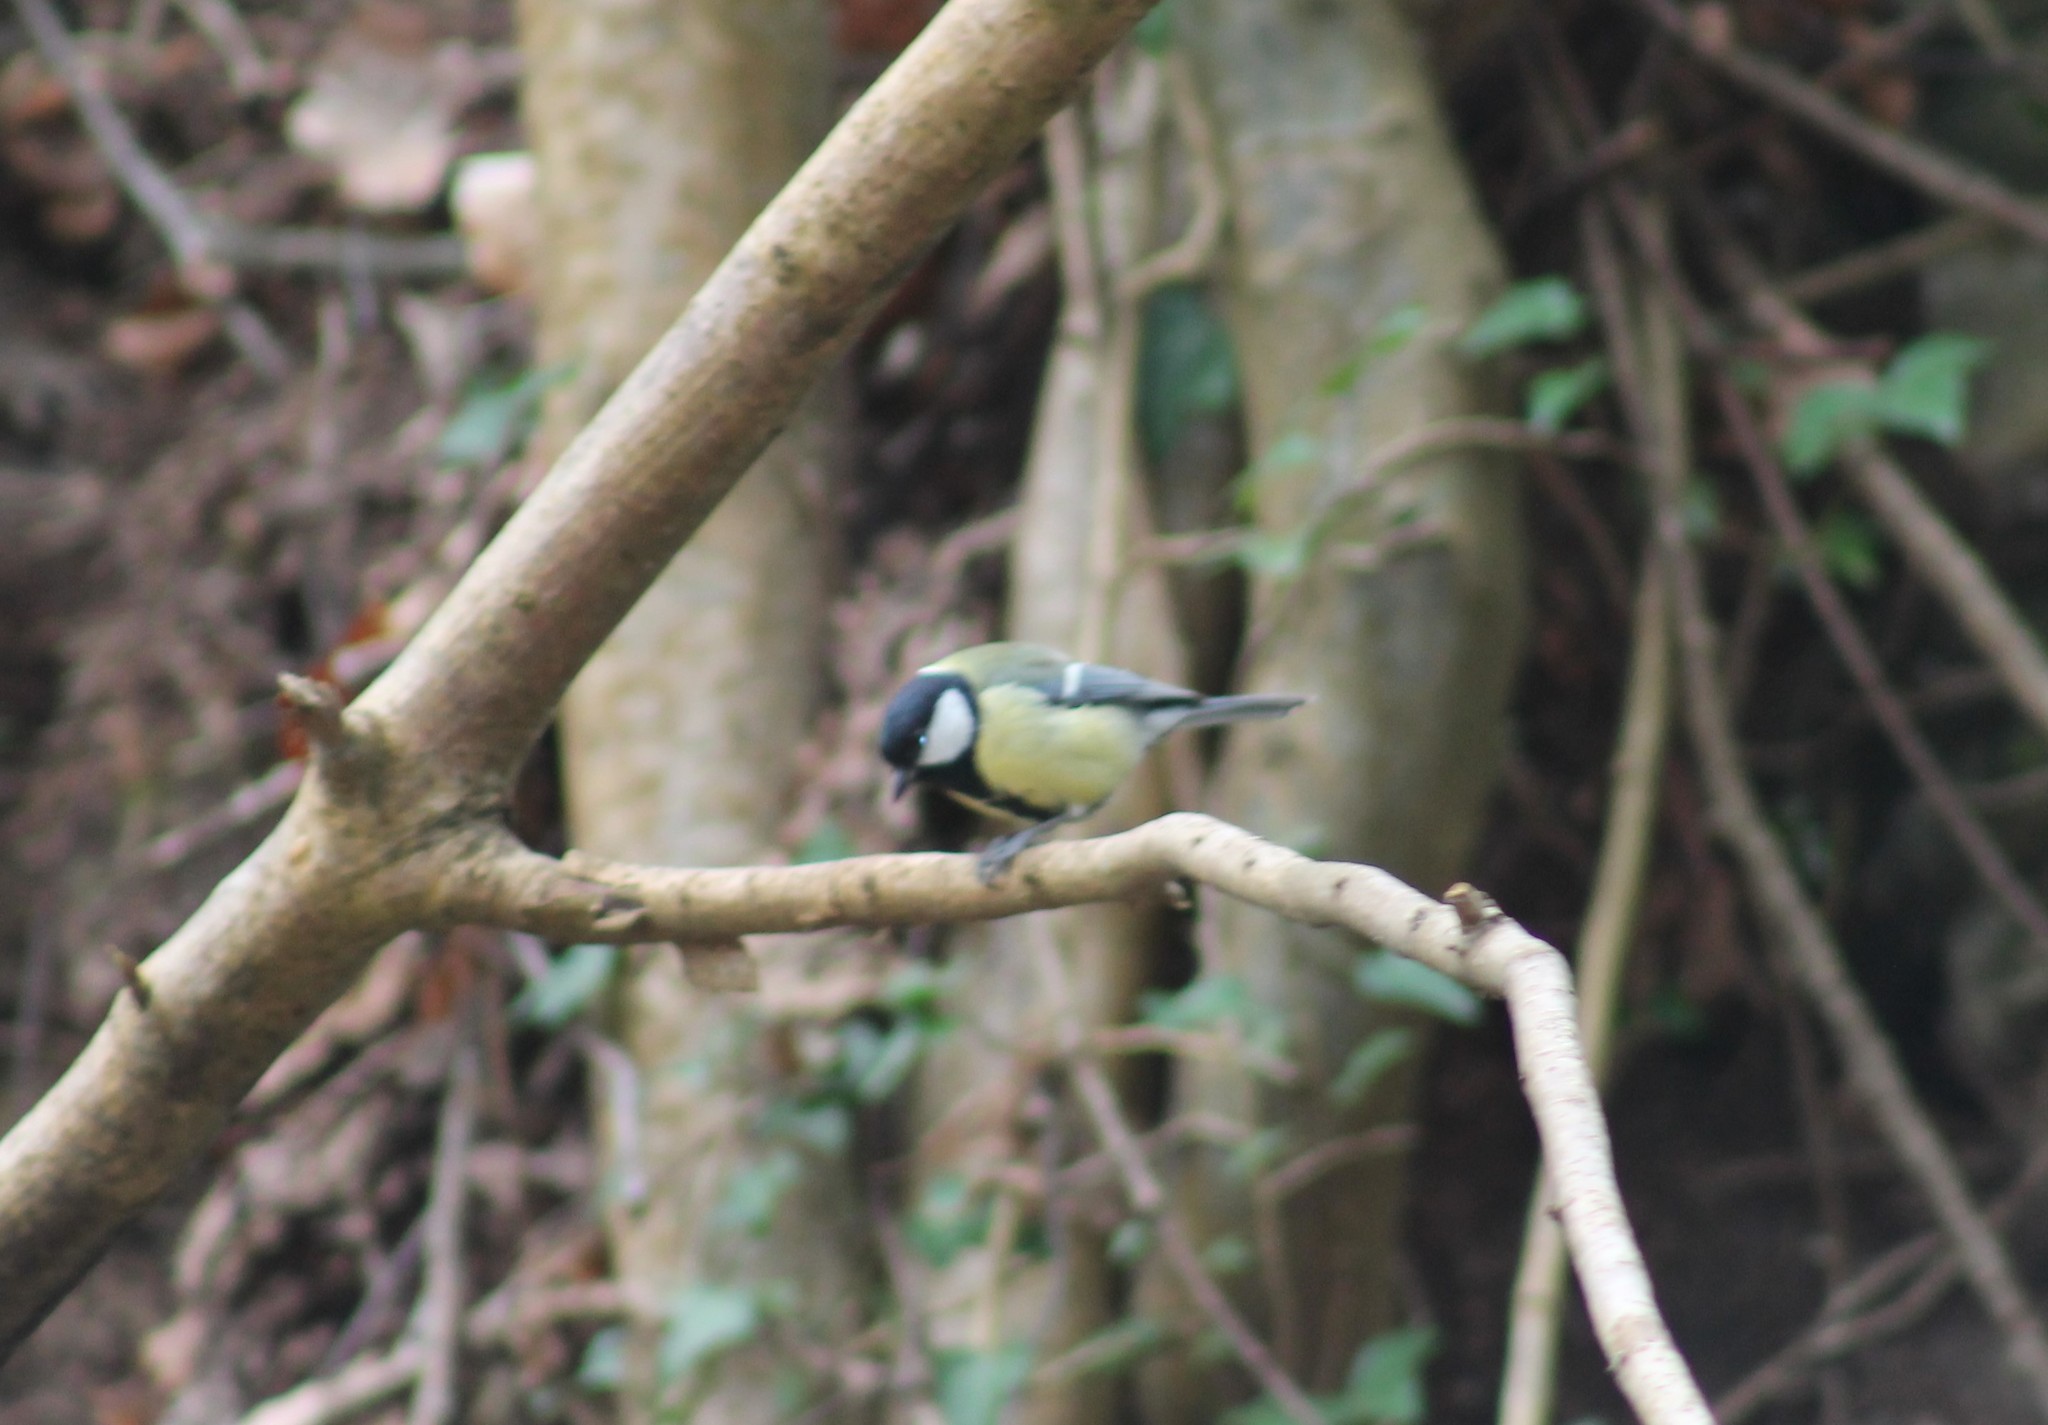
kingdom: Animalia
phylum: Chordata
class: Aves
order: Passeriformes
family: Paridae
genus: Parus
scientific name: Parus major
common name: Great tit
